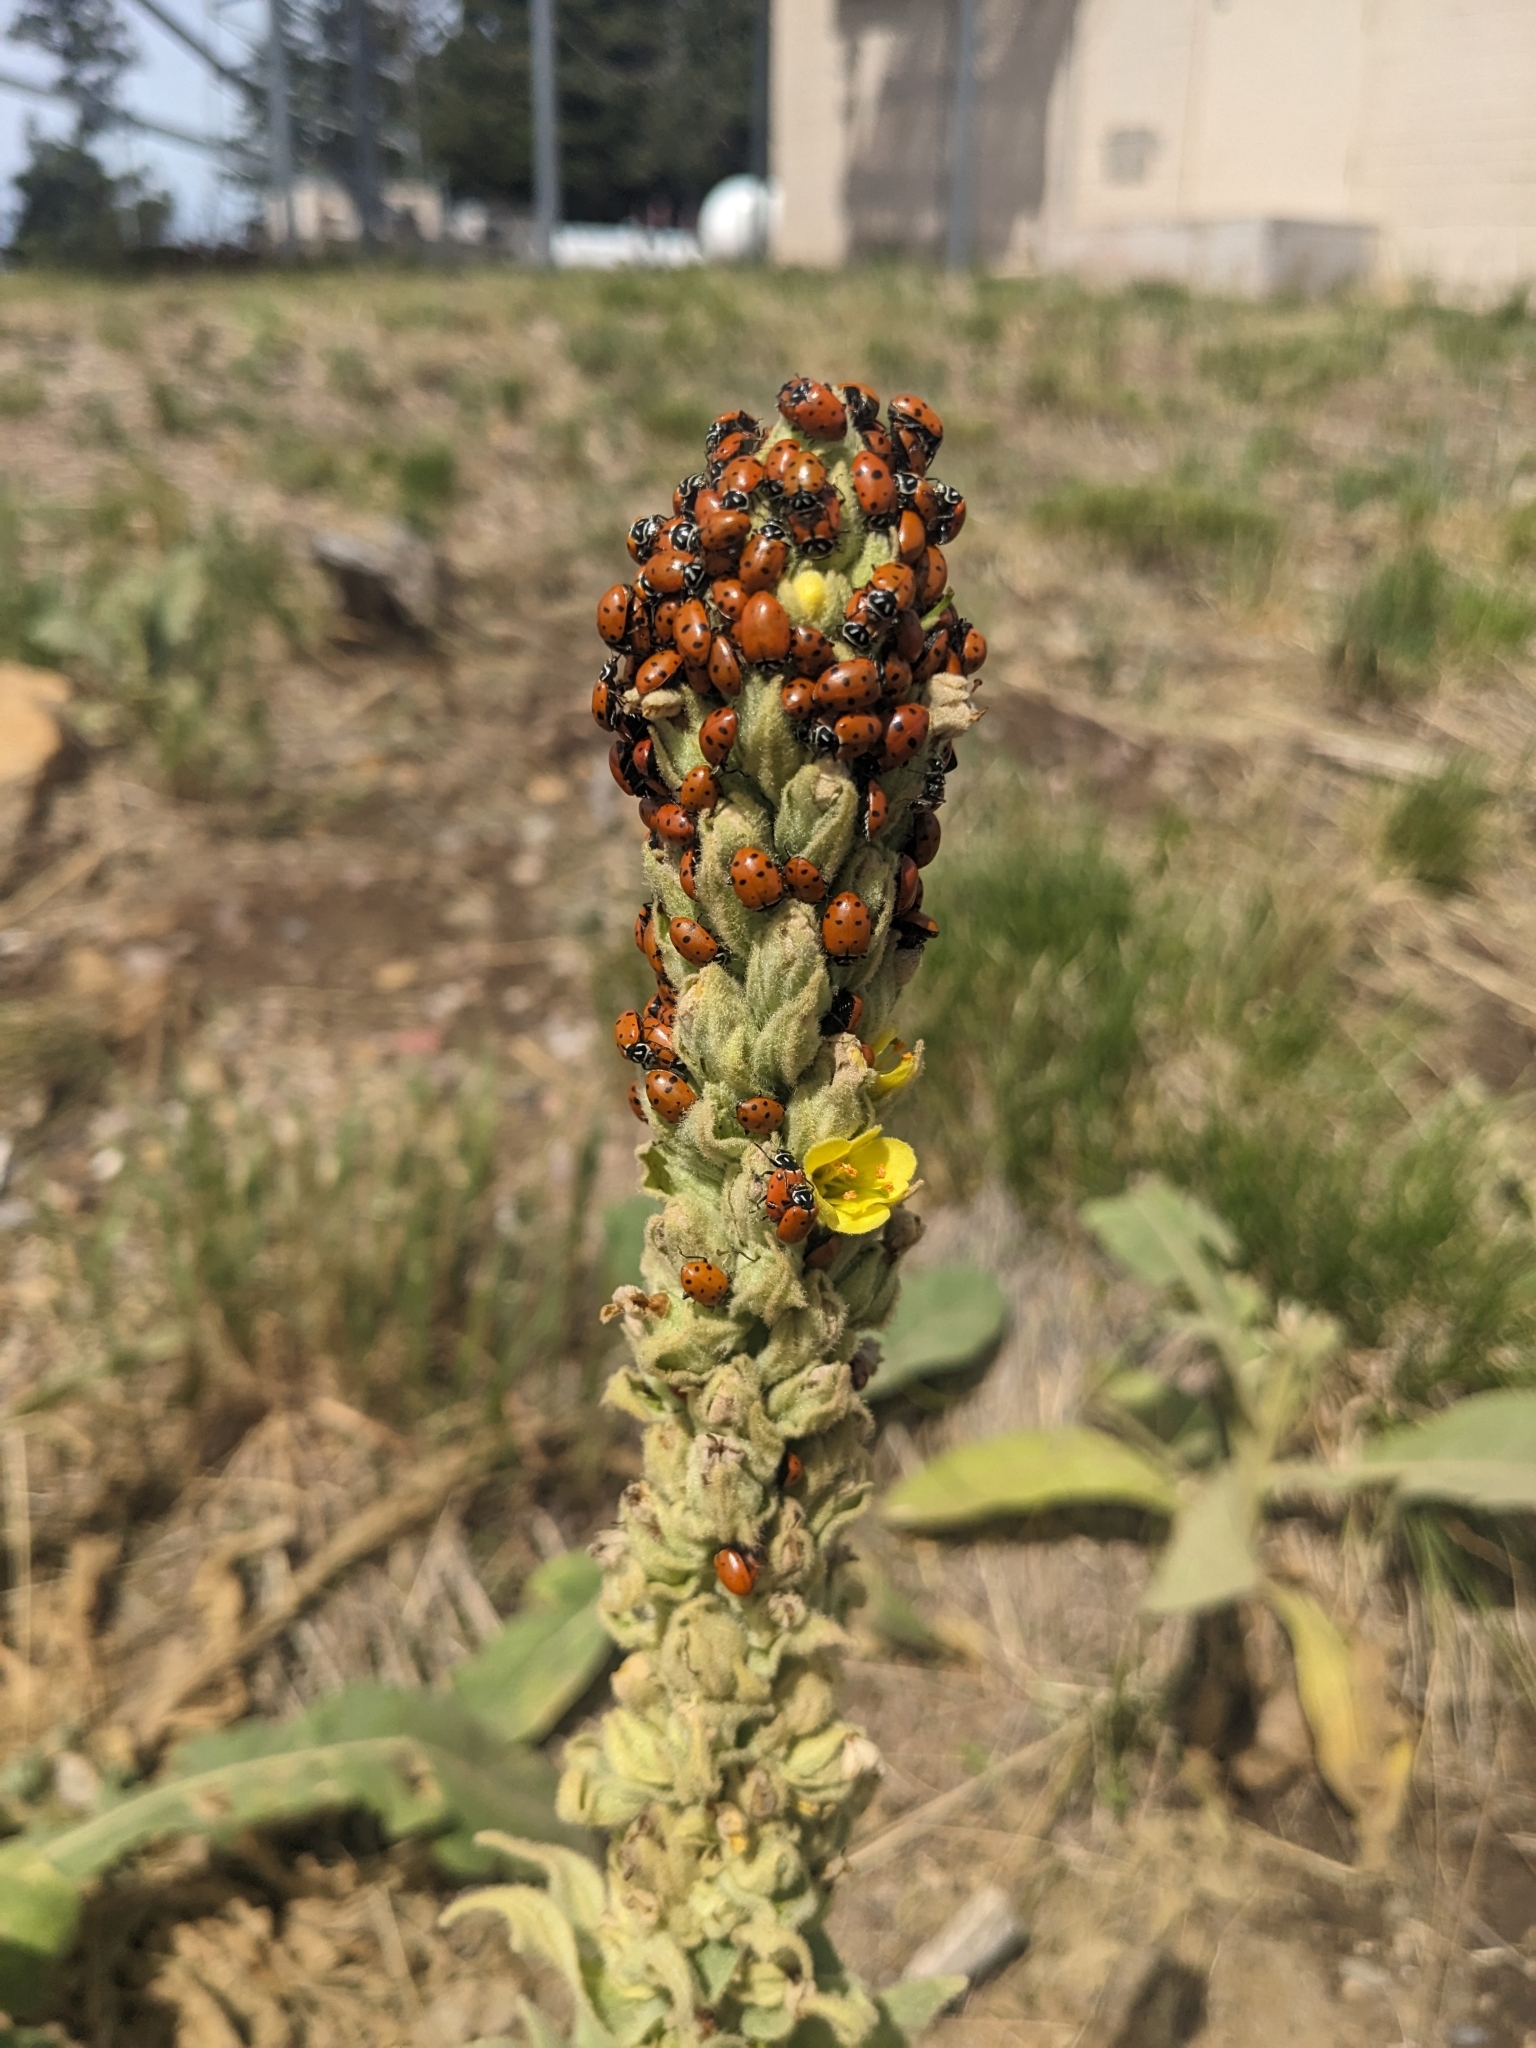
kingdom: Animalia
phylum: Arthropoda
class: Insecta
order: Coleoptera
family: Coccinellidae
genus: Hippodamia
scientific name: Hippodamia convergens
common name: Convergent lady beetle
